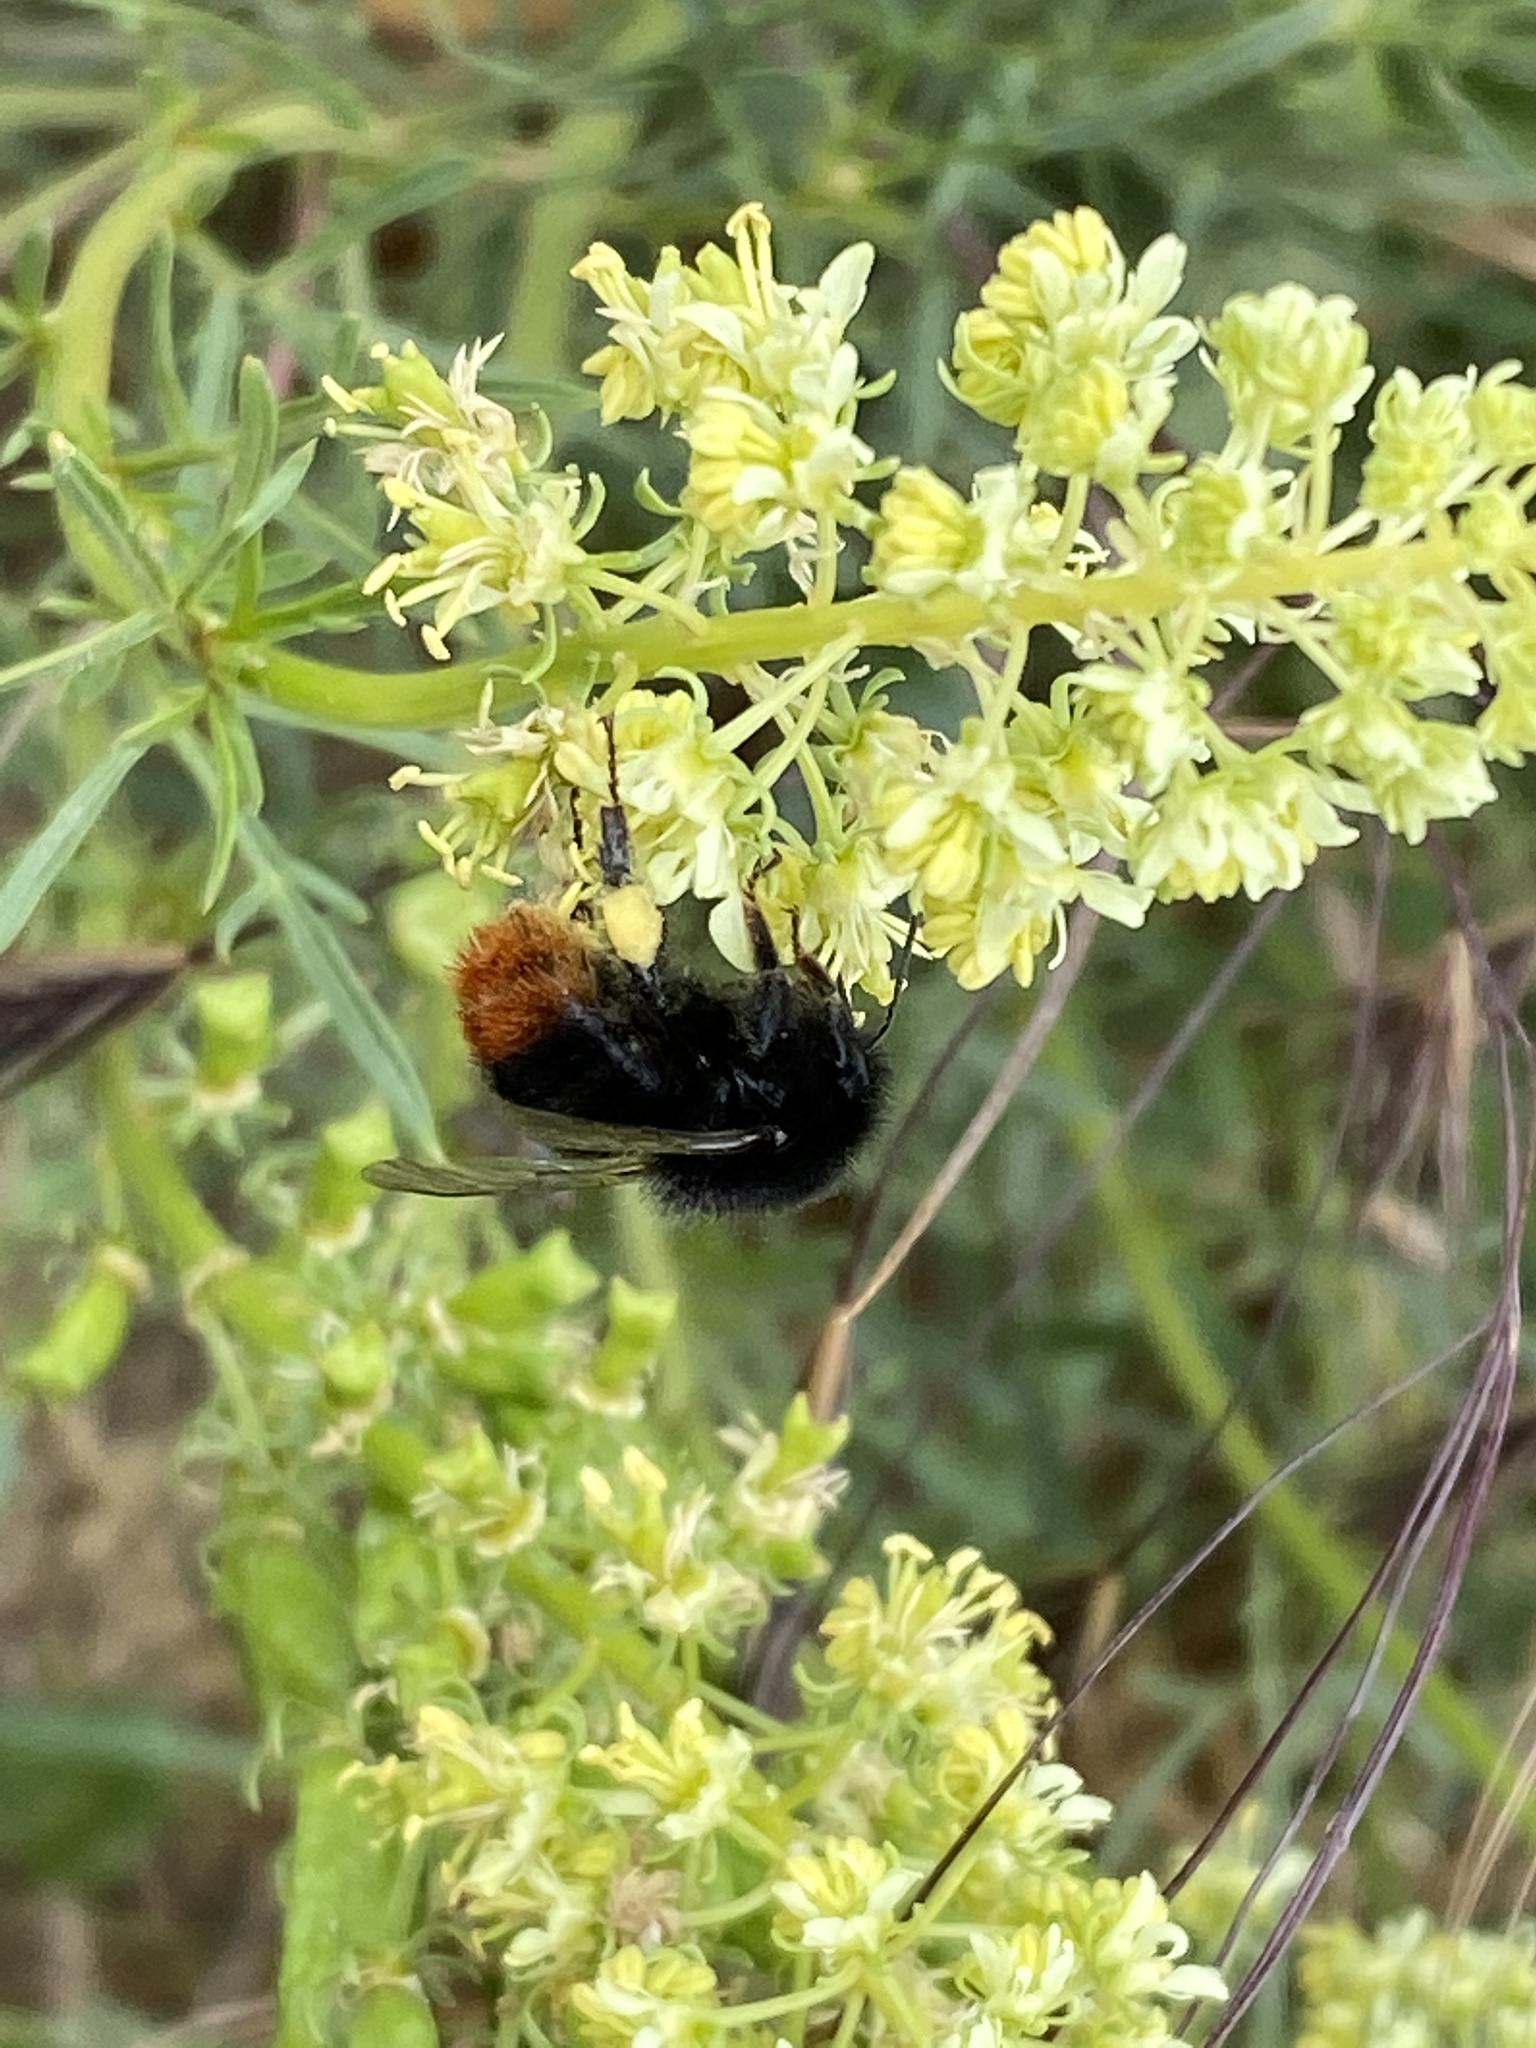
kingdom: Animalia
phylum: Arthropoda
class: Insecta
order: Hymenoptera
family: Apidae
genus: Bombus
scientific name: Bombus lapidarius
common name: Large red-tailed humble-bee
